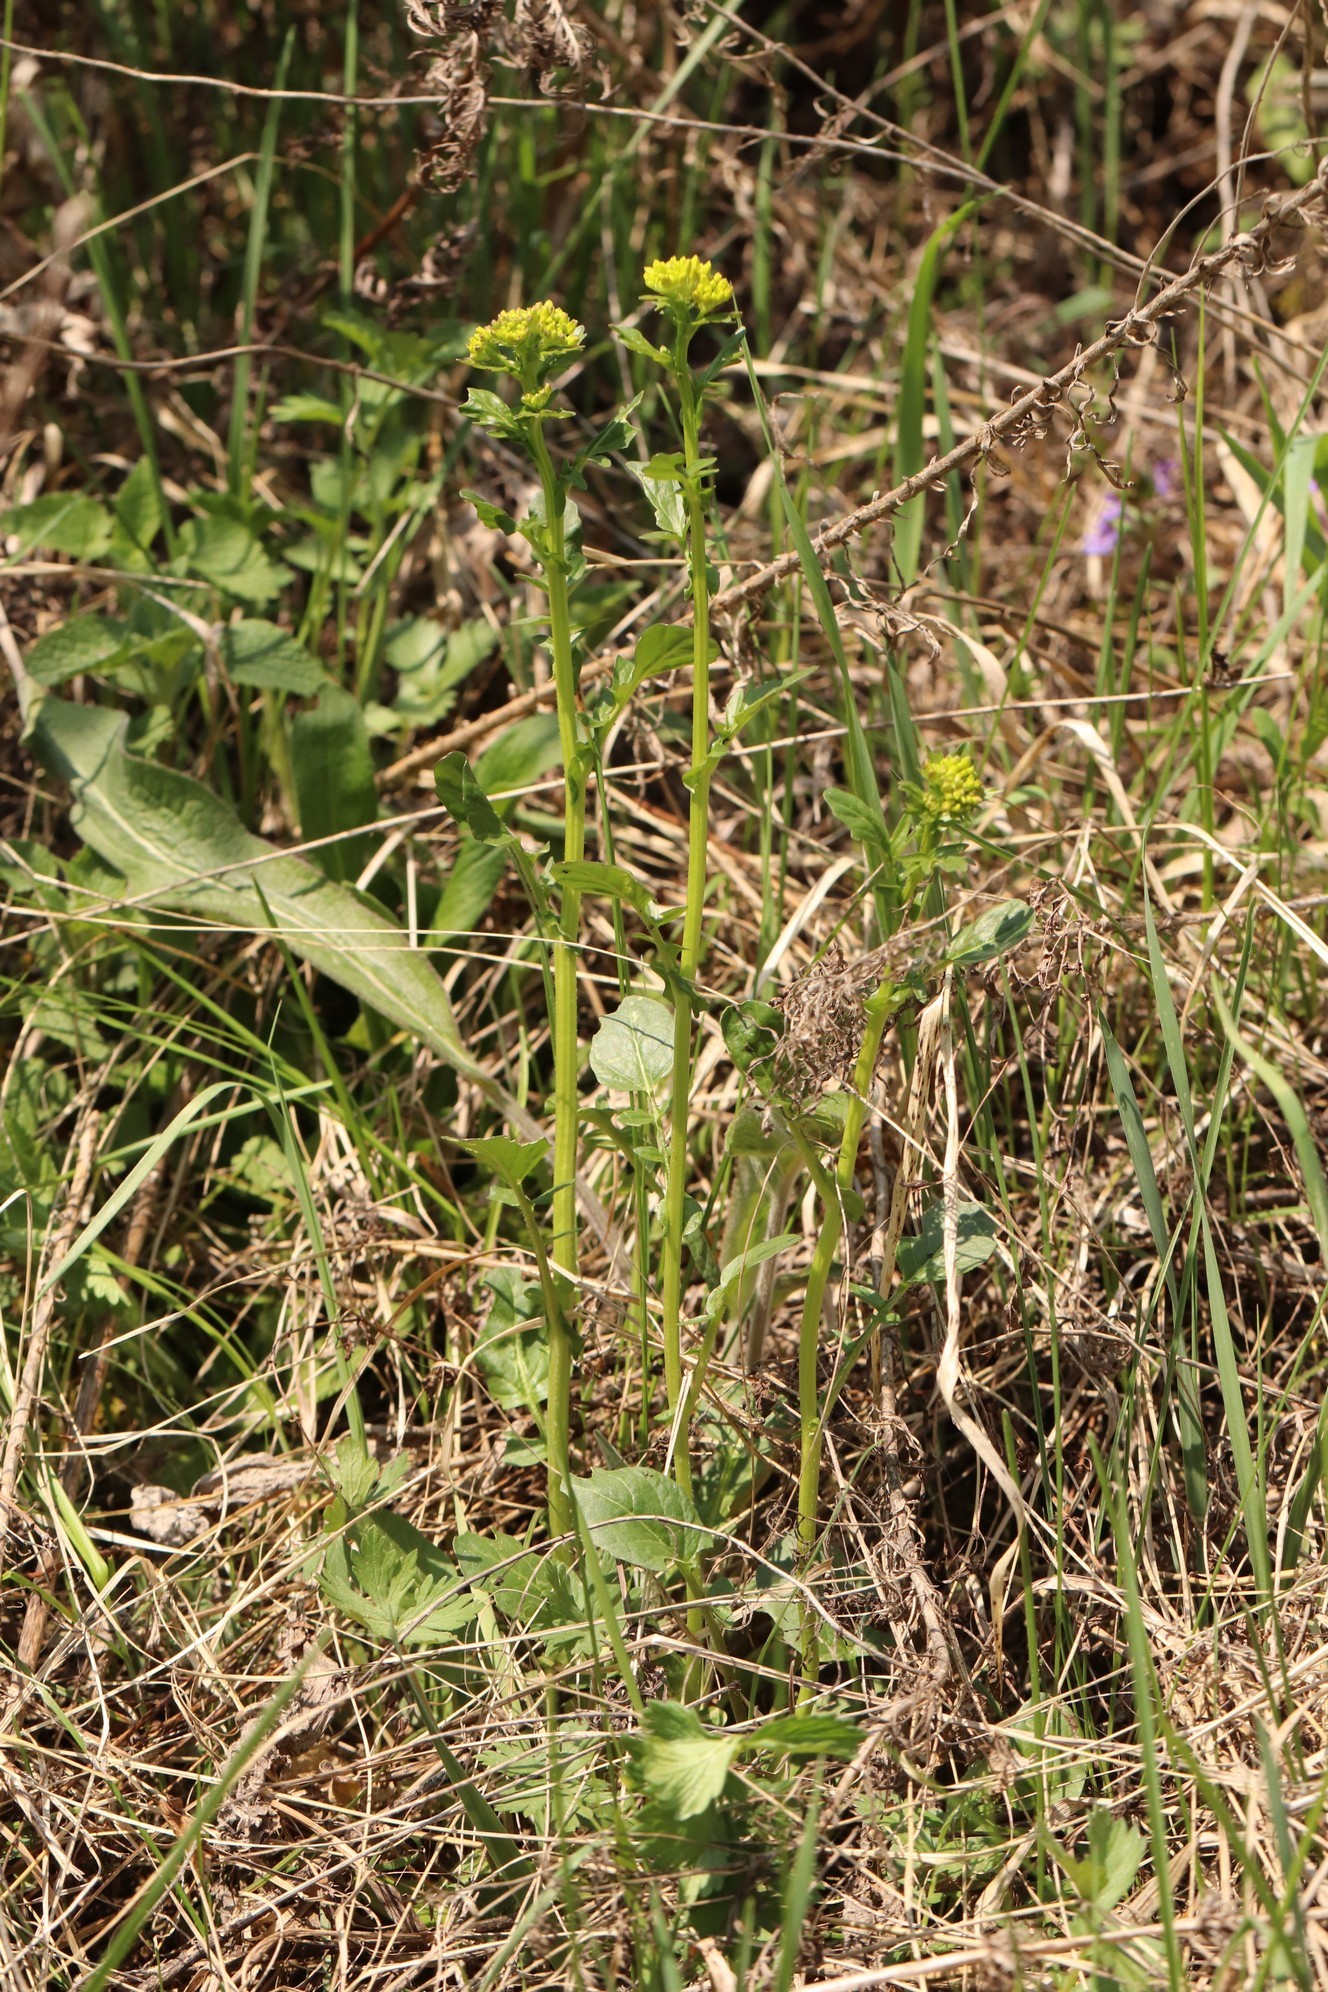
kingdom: Plantae
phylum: Tracheophyta
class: Magnoliopsida
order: Brassicales
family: Brassicaceae
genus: Barbarea
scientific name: Barbarea vulgaris
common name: Cressy-greens
